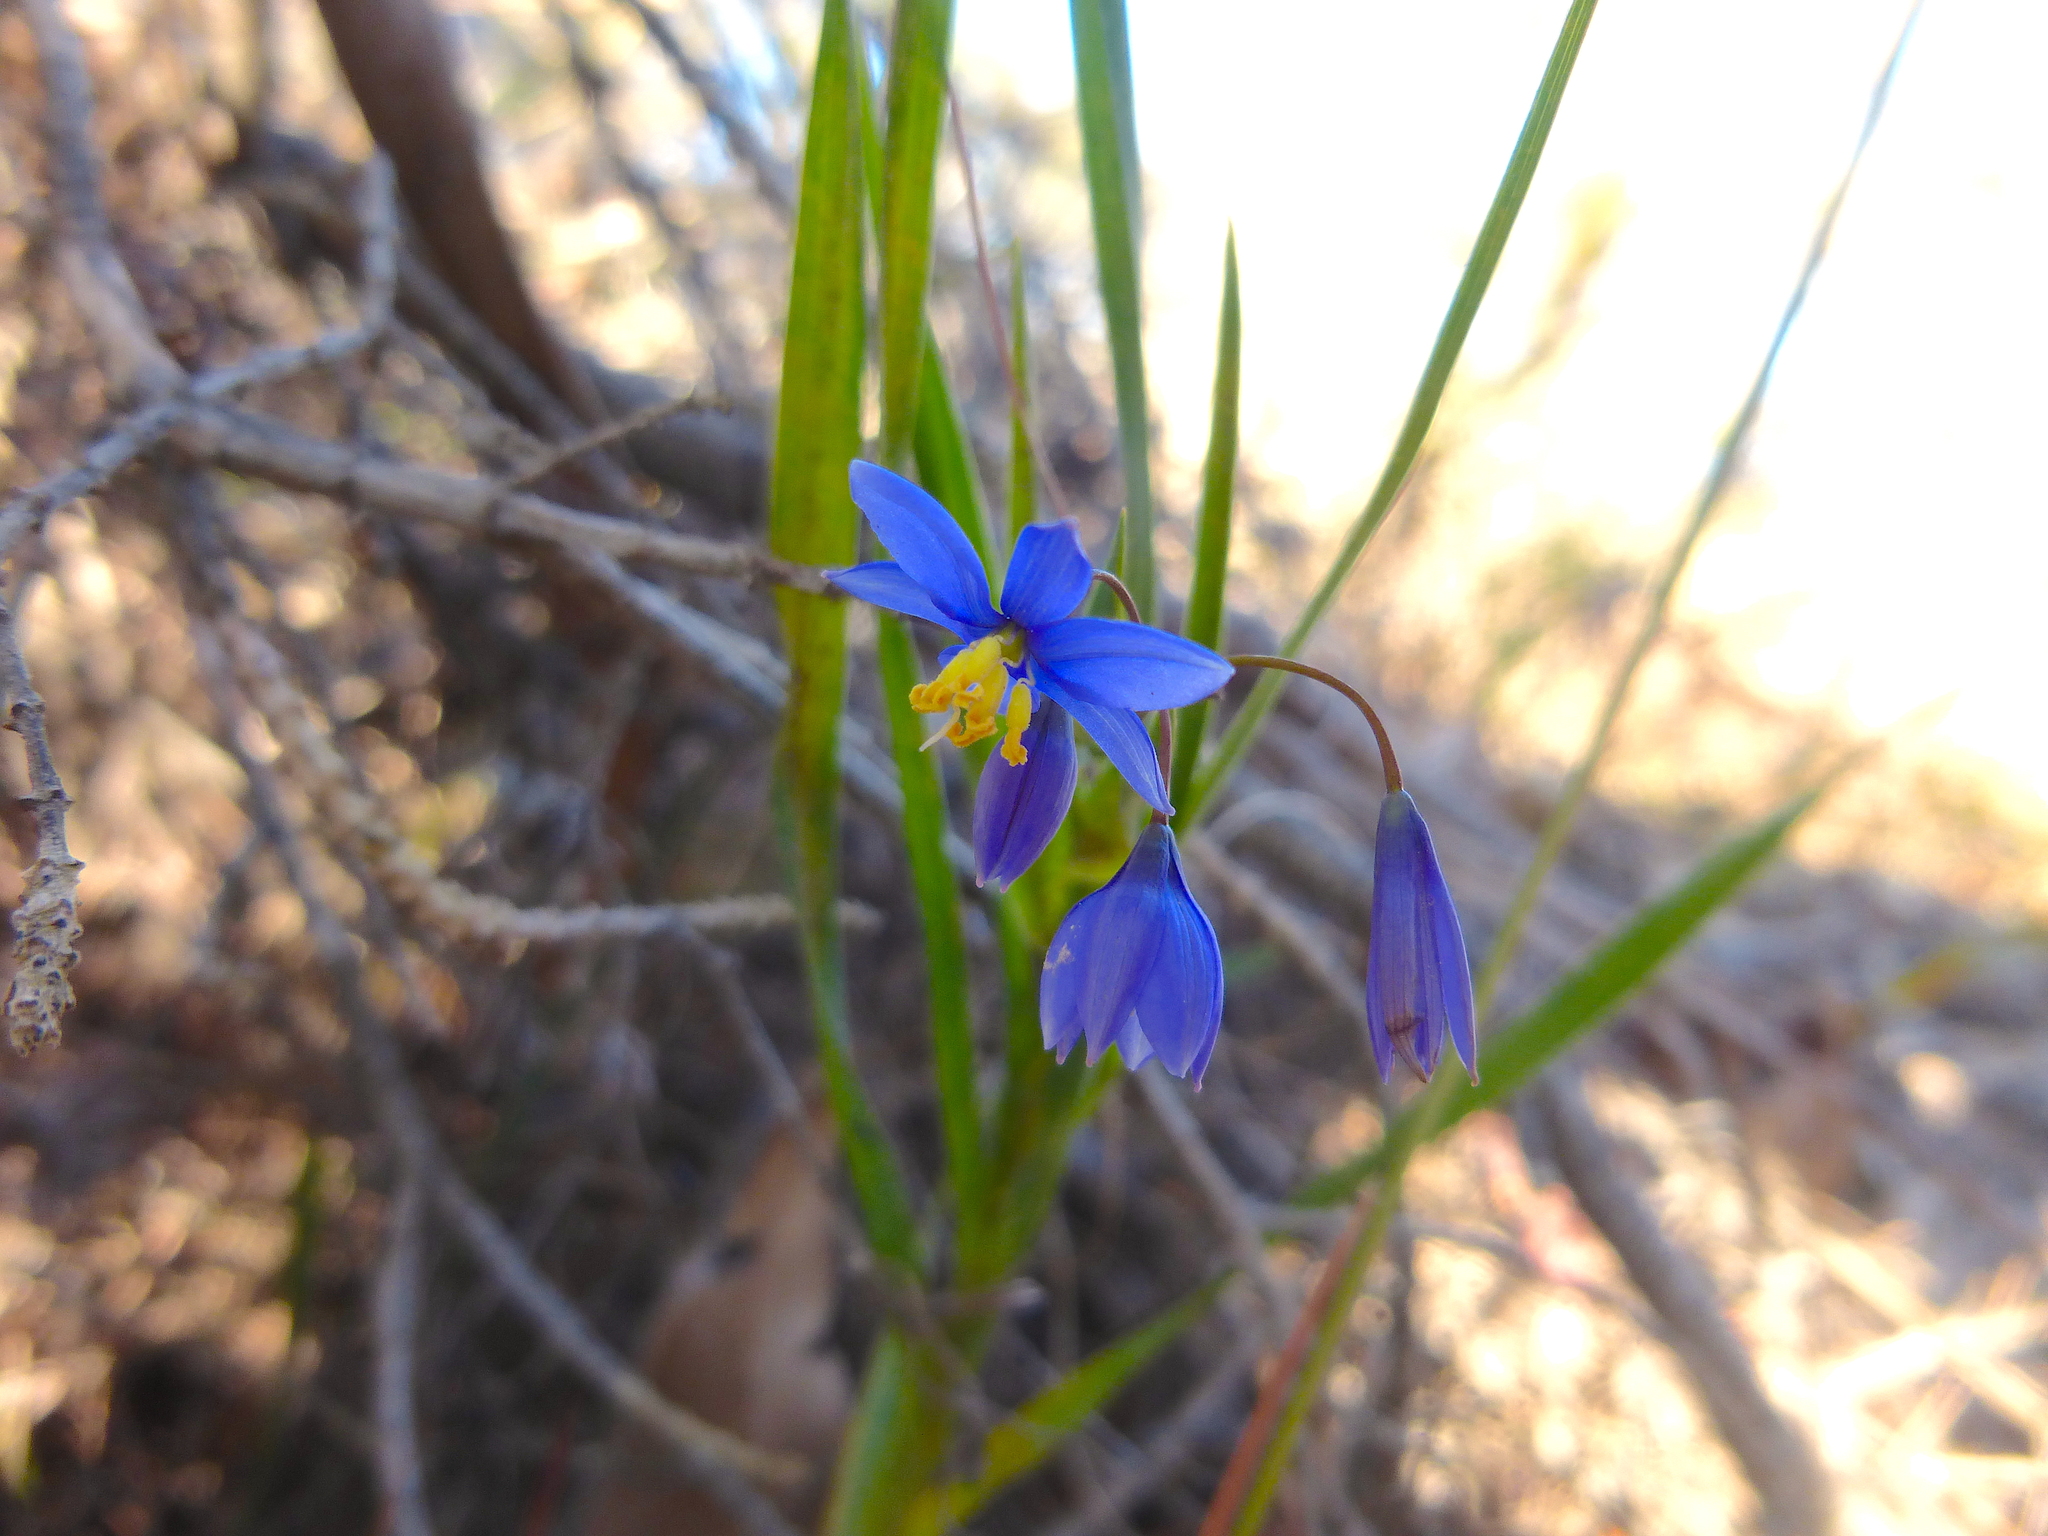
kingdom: Plantae
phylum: Tracheophyta
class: Liliopsida
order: Asparagales
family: Asphodelaceae
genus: Stypandra
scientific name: Stypandra glauca
